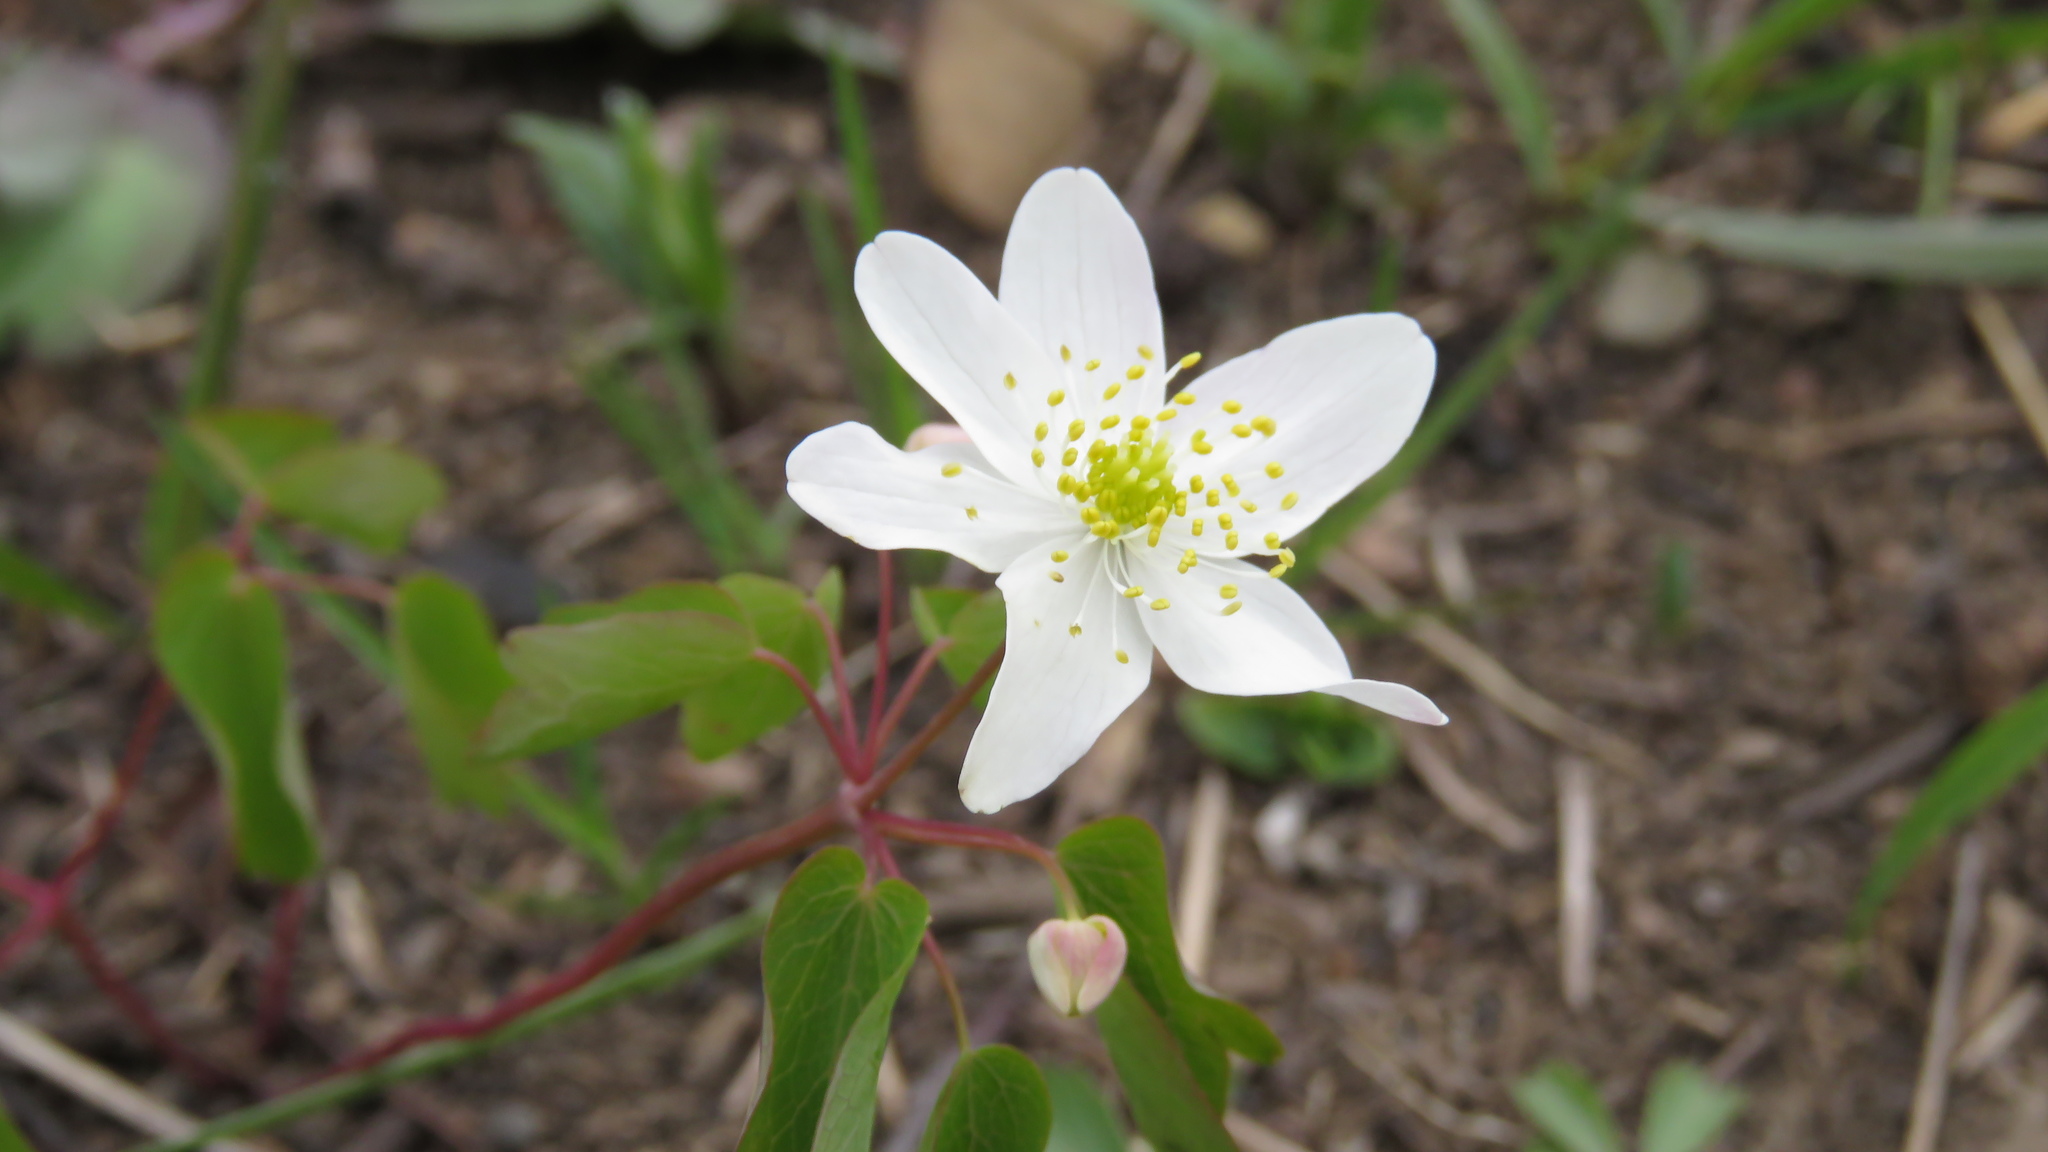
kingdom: Plantae
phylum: Tracheophyta
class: Magnoliopsida
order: Ranunculales
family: Ranunculaceae
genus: Thalictrum
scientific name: Thalictrum thalictroides
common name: Rue-anemone
